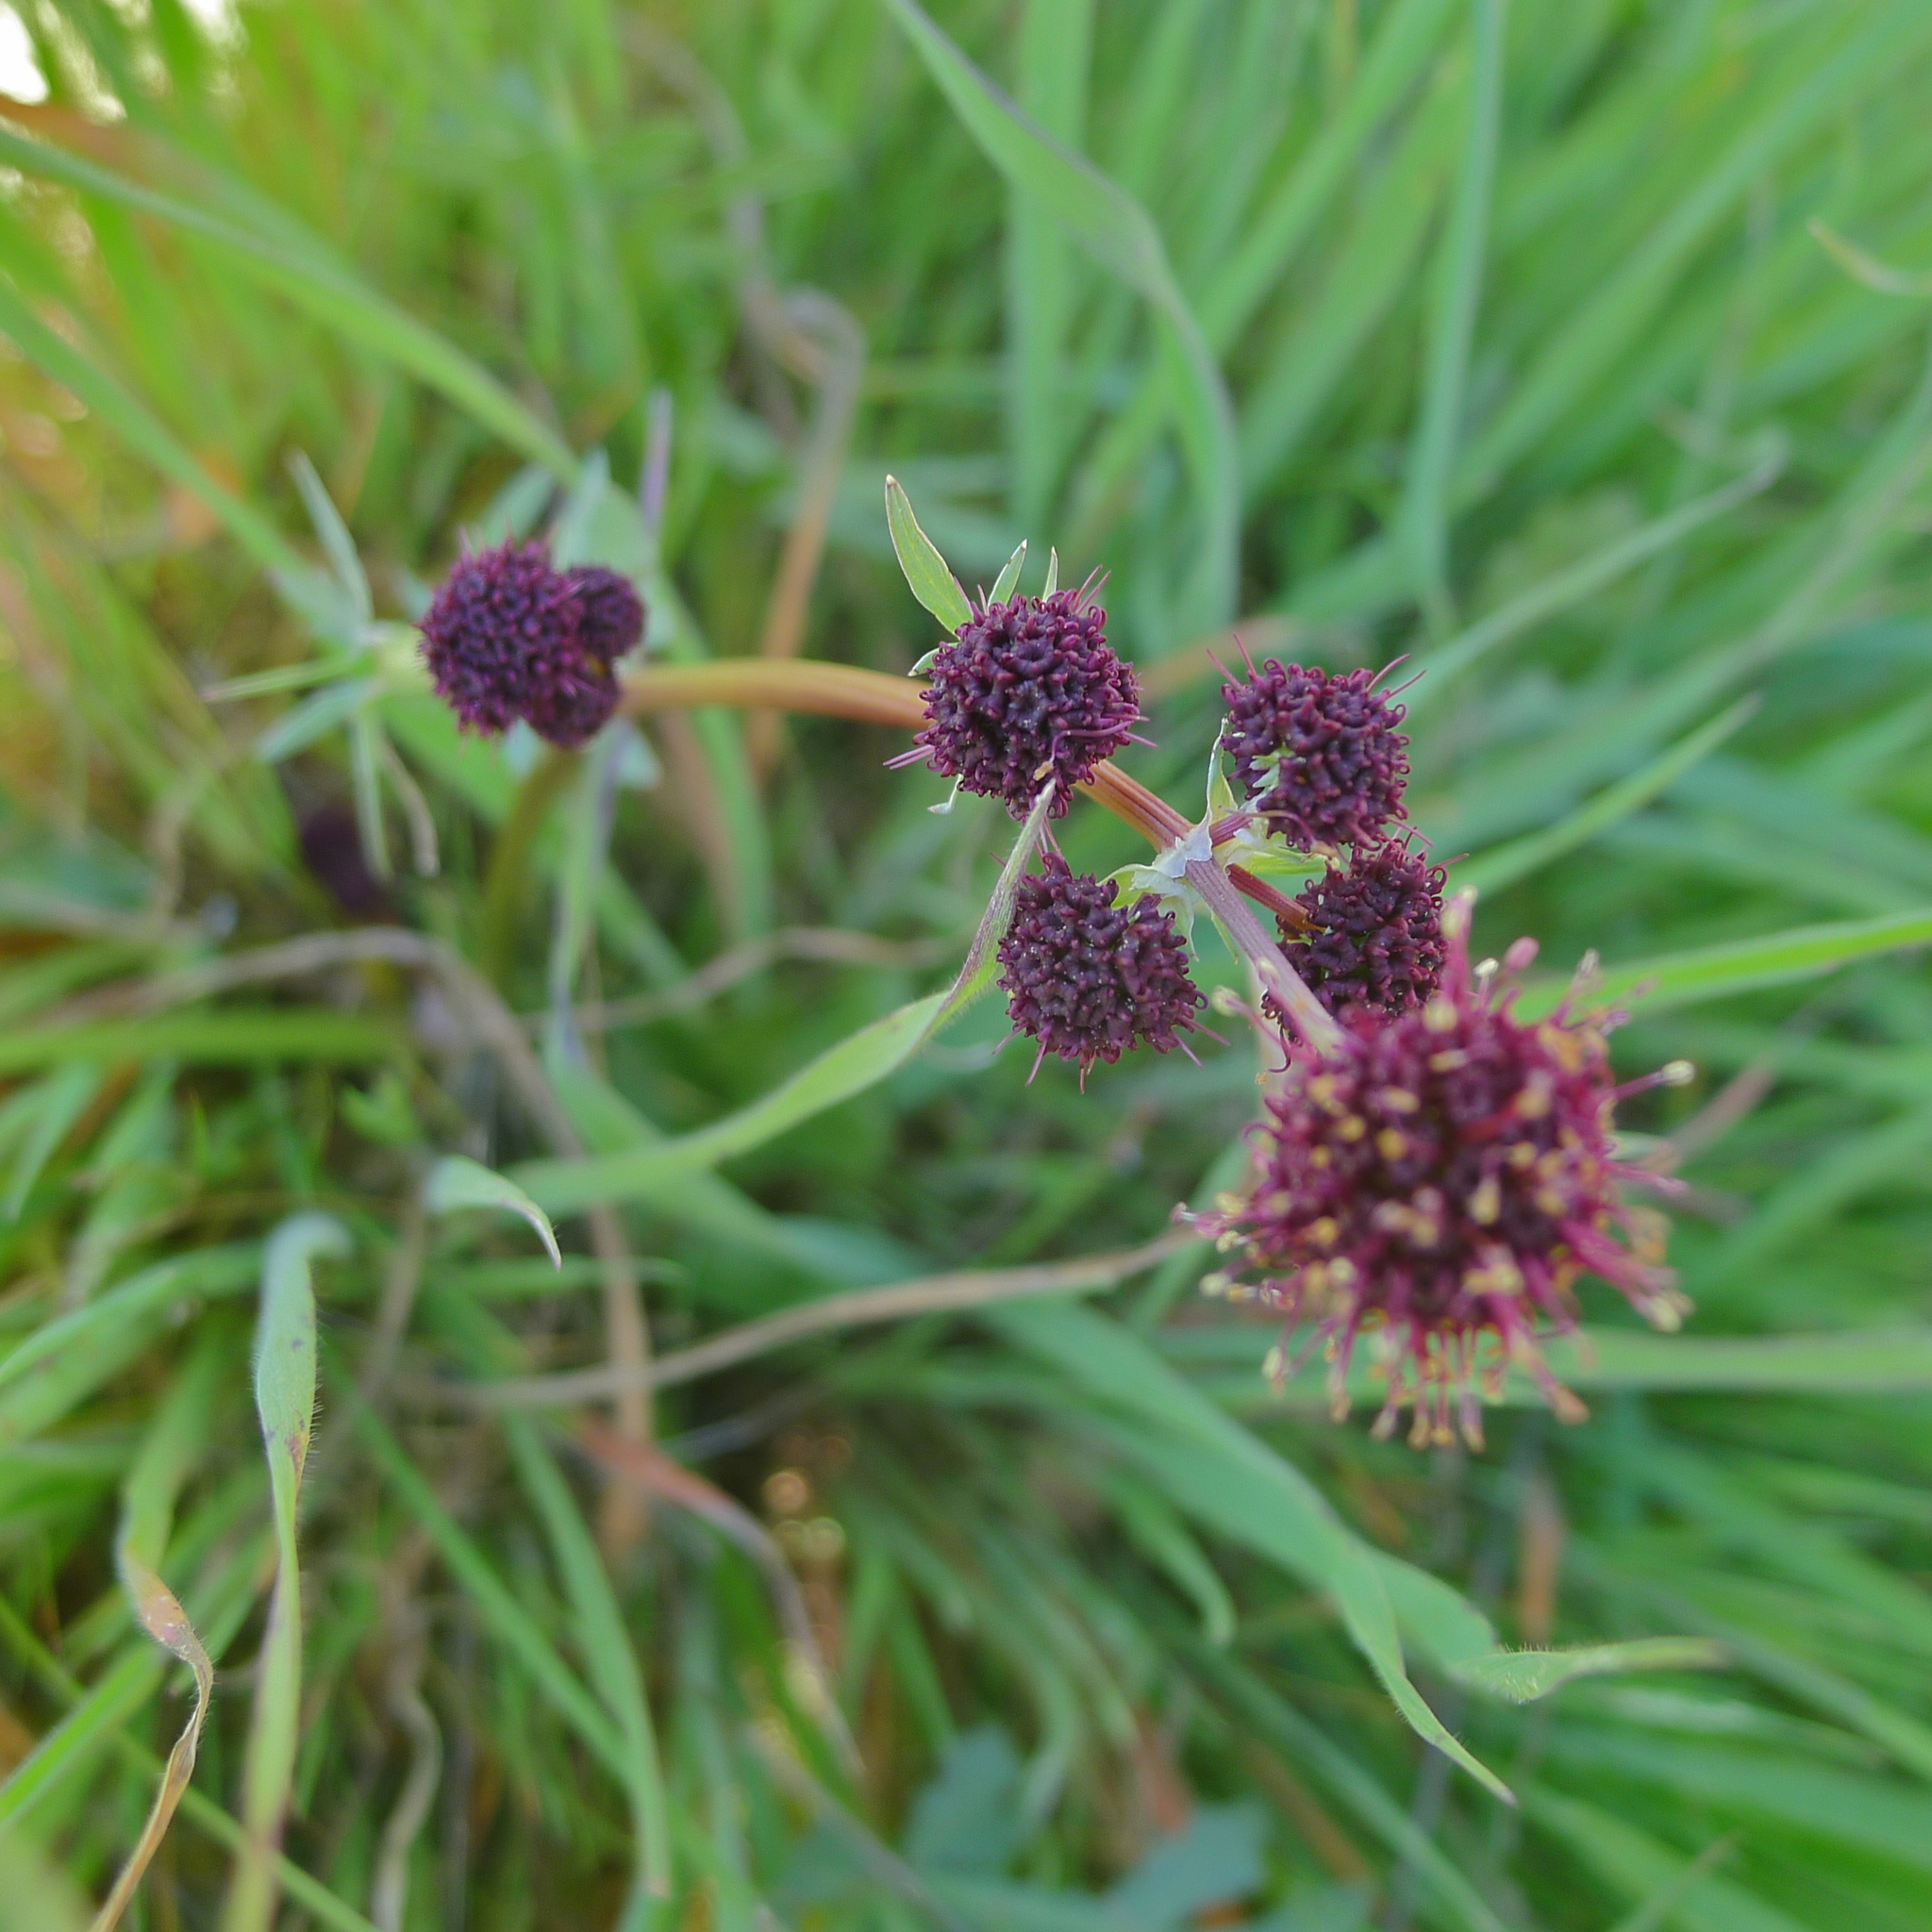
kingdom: Plantae
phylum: Tracheophyta
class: Magnoliopsida
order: Apiales
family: Apiaceae
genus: Sanicula
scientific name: Sanicula bipinnatifida
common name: Shoe-buttons
